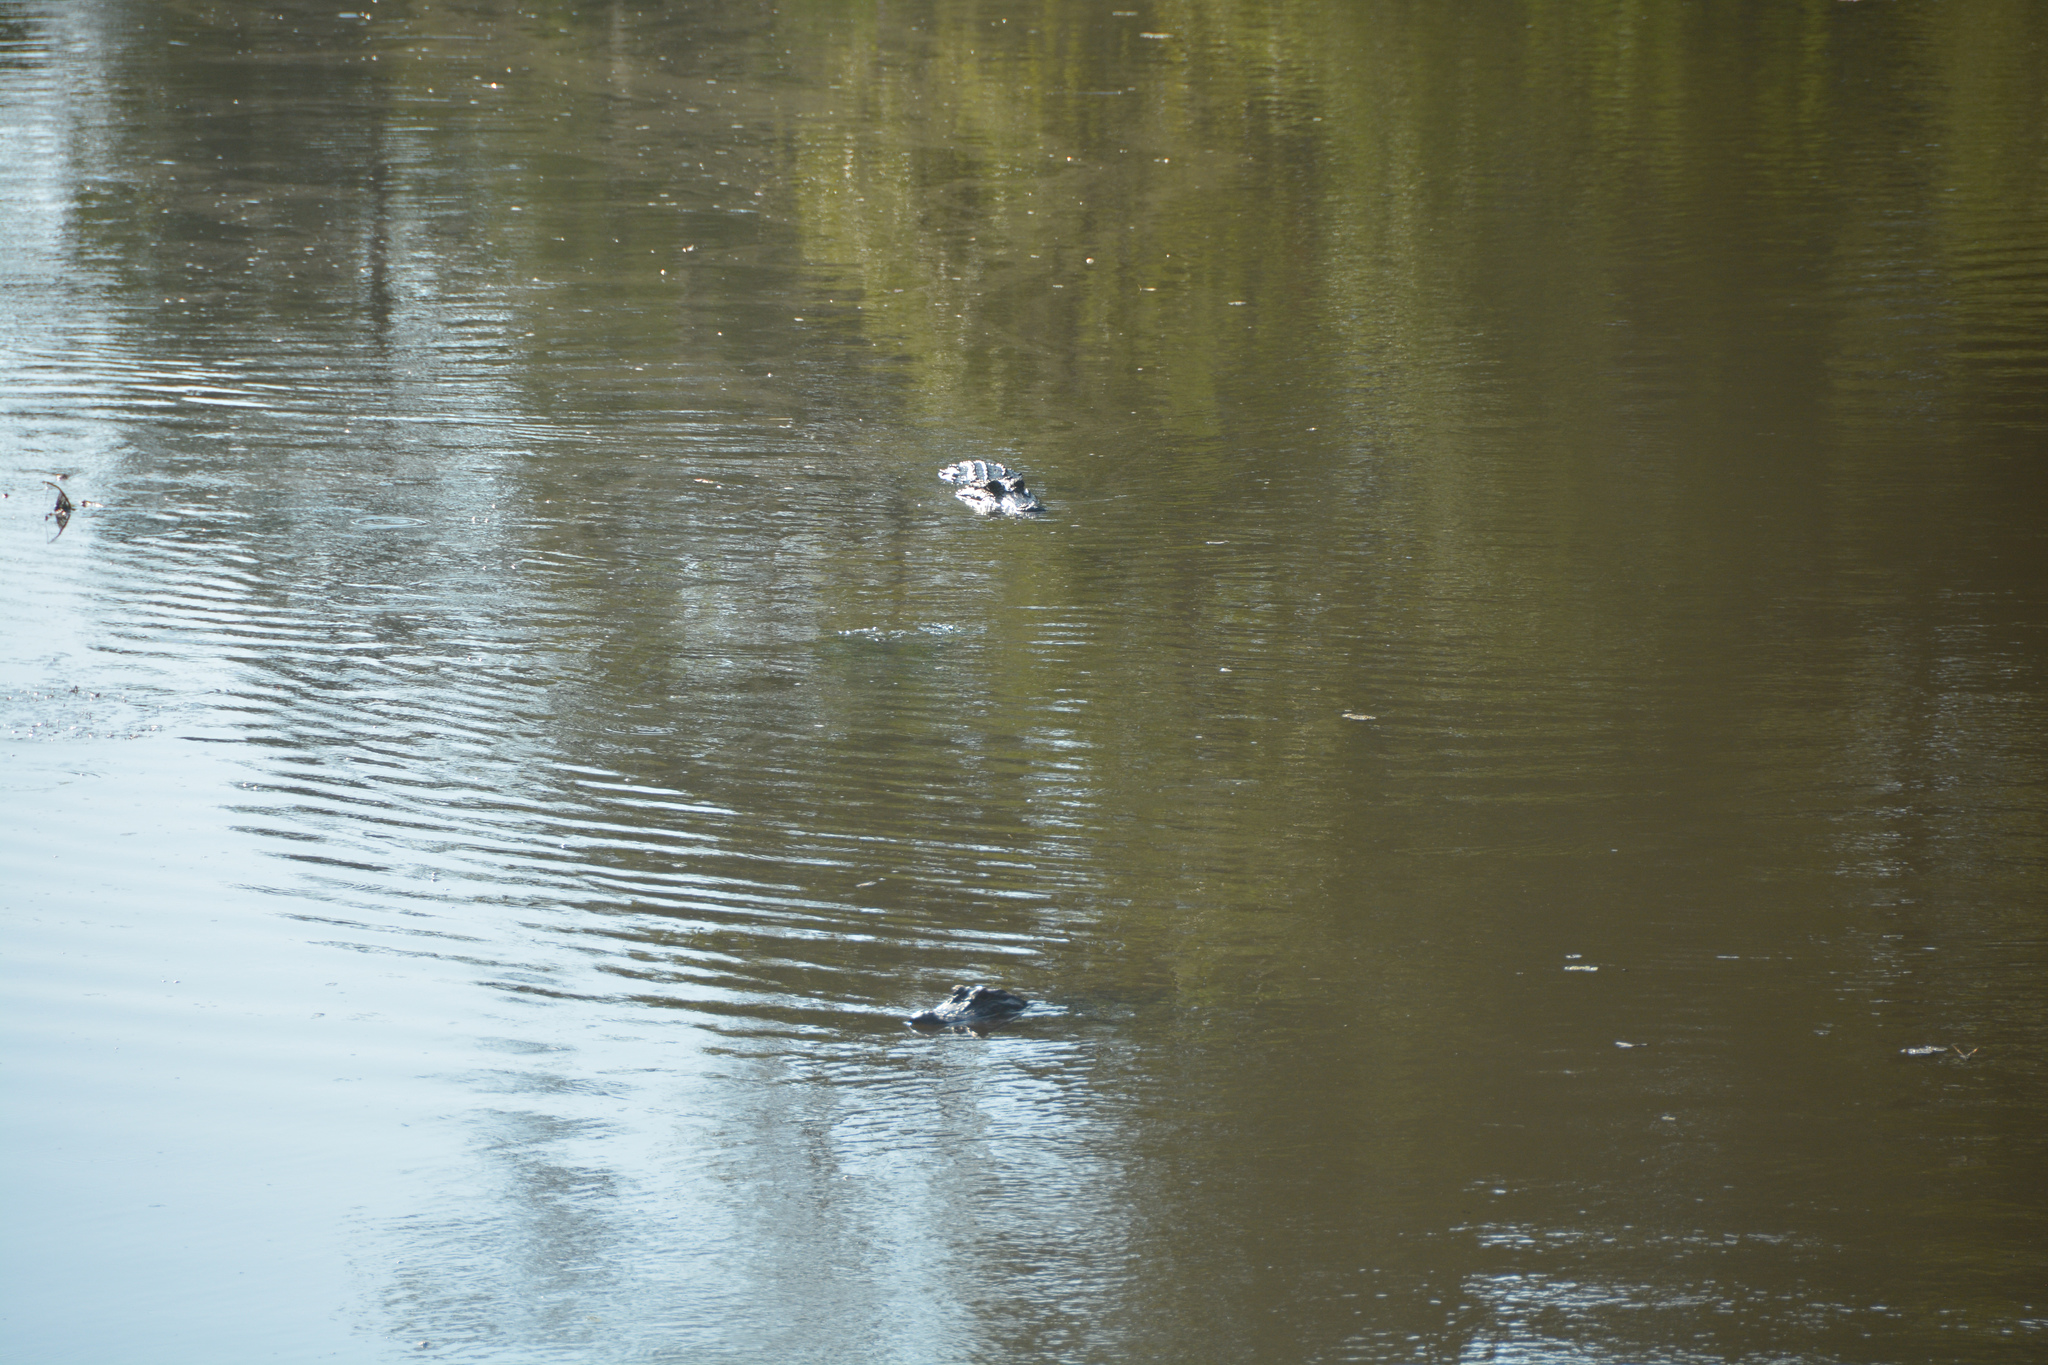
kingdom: Animalia
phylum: Chordata
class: Crocodylia
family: Alligatoridae
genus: Alligator
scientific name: Alligator mississippiensis
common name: American alligator
